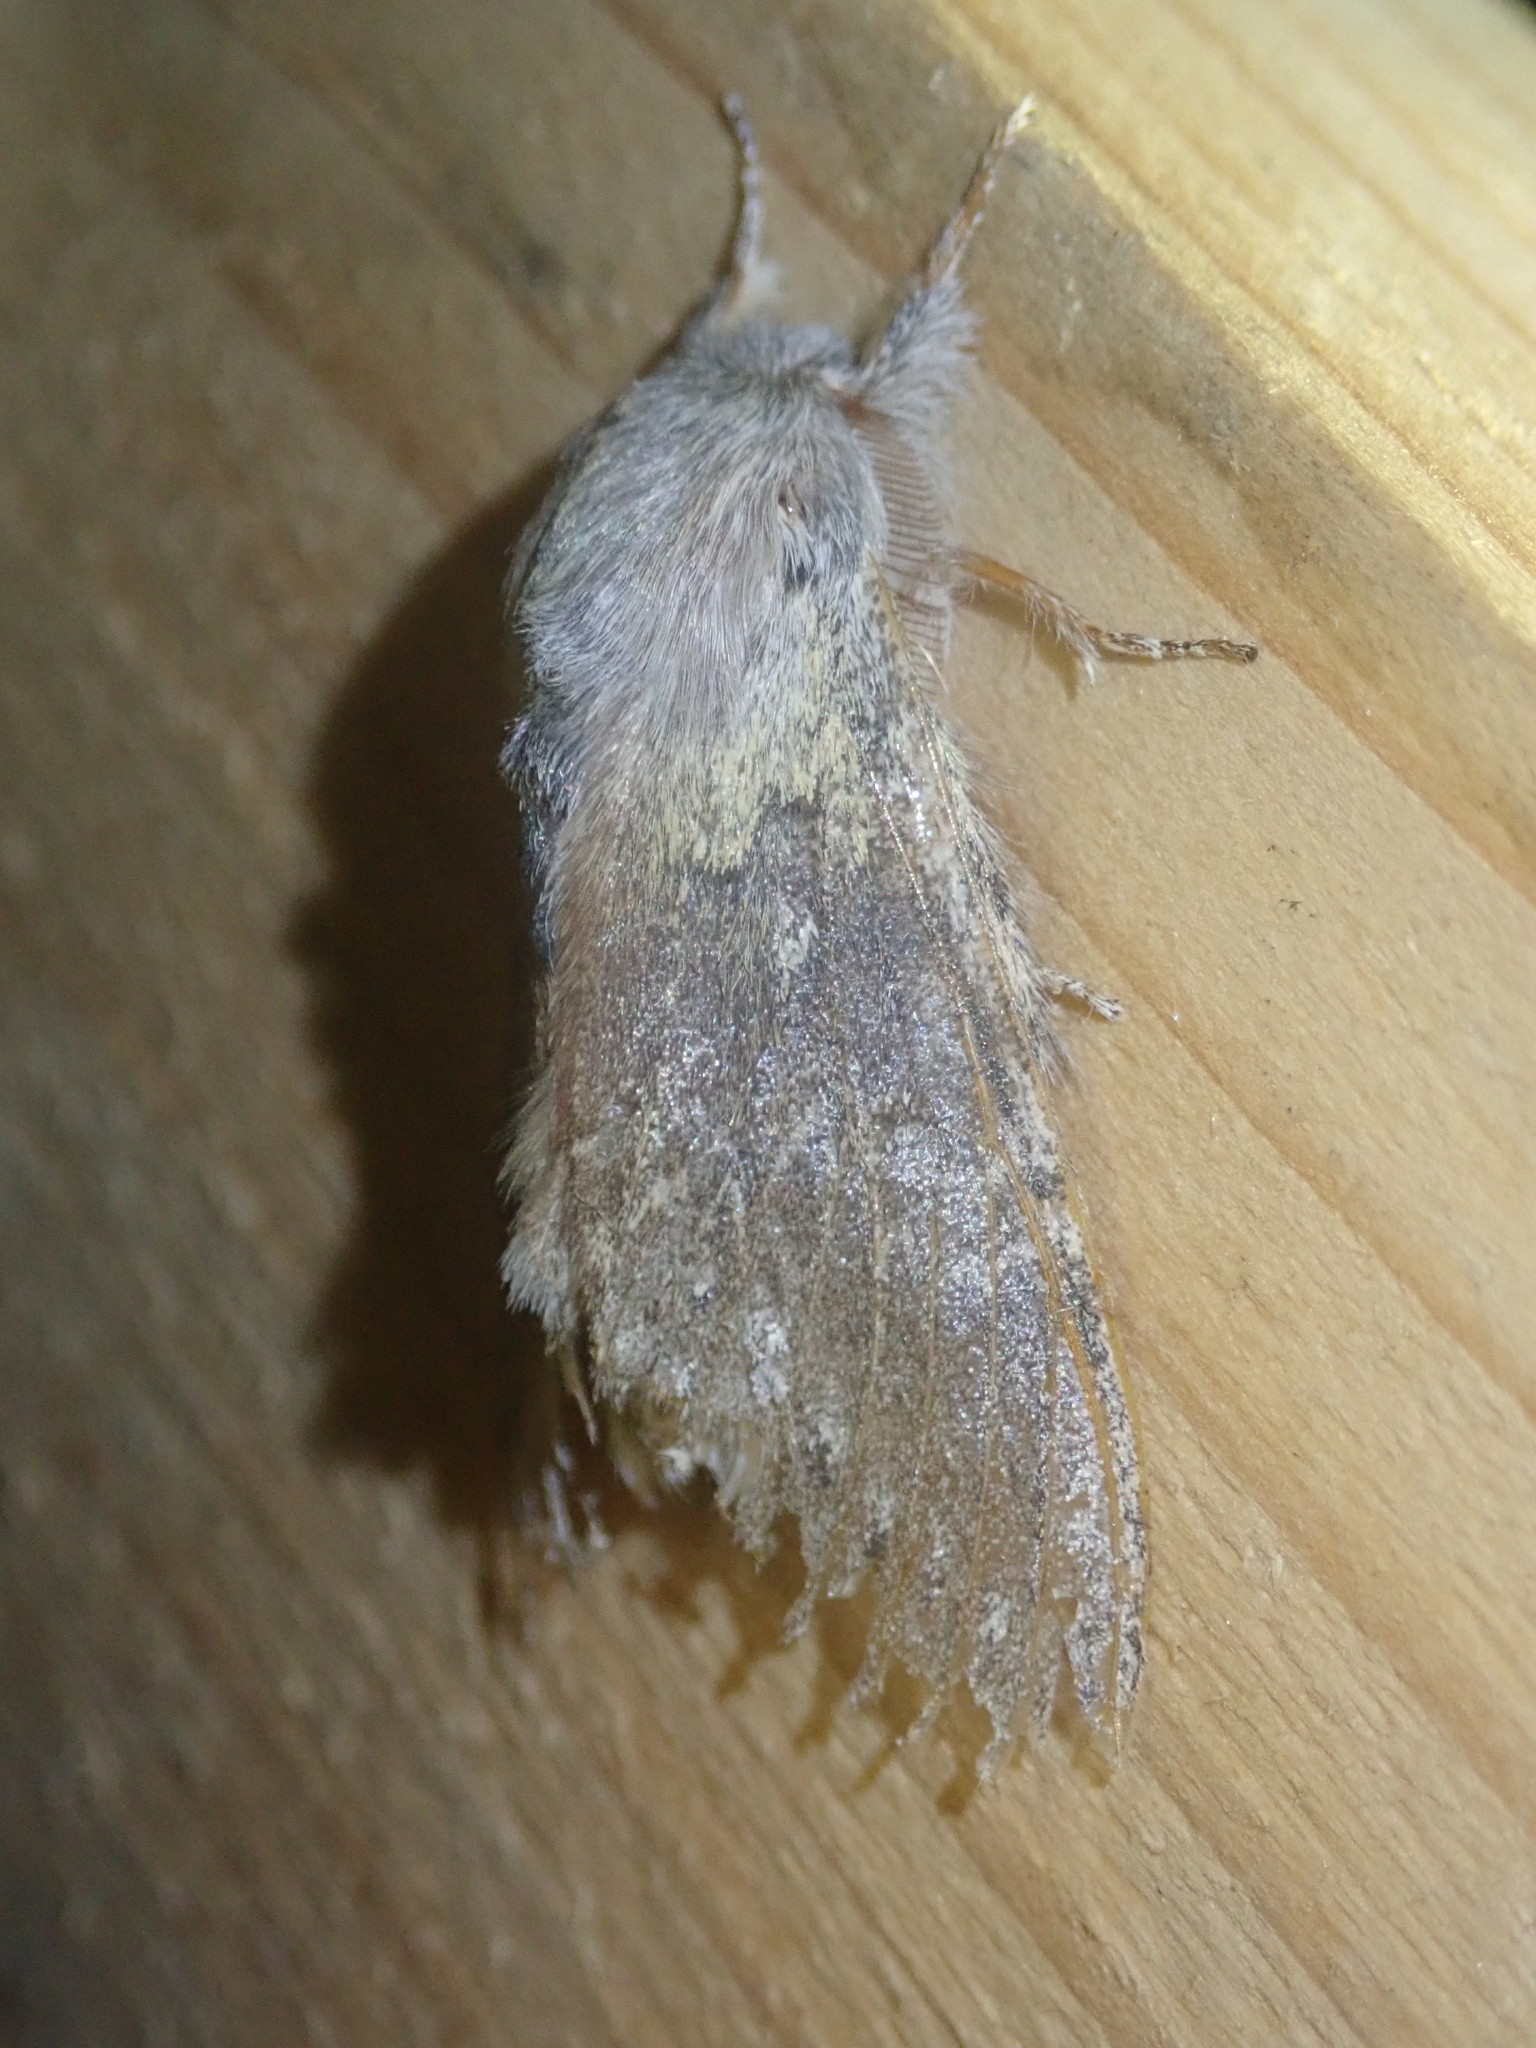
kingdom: Animalia
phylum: Arthropoda
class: Insecta
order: Lepidoptera
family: Notodontidae
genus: Stauropus
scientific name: Stauropus fagi
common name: Lobster moth
